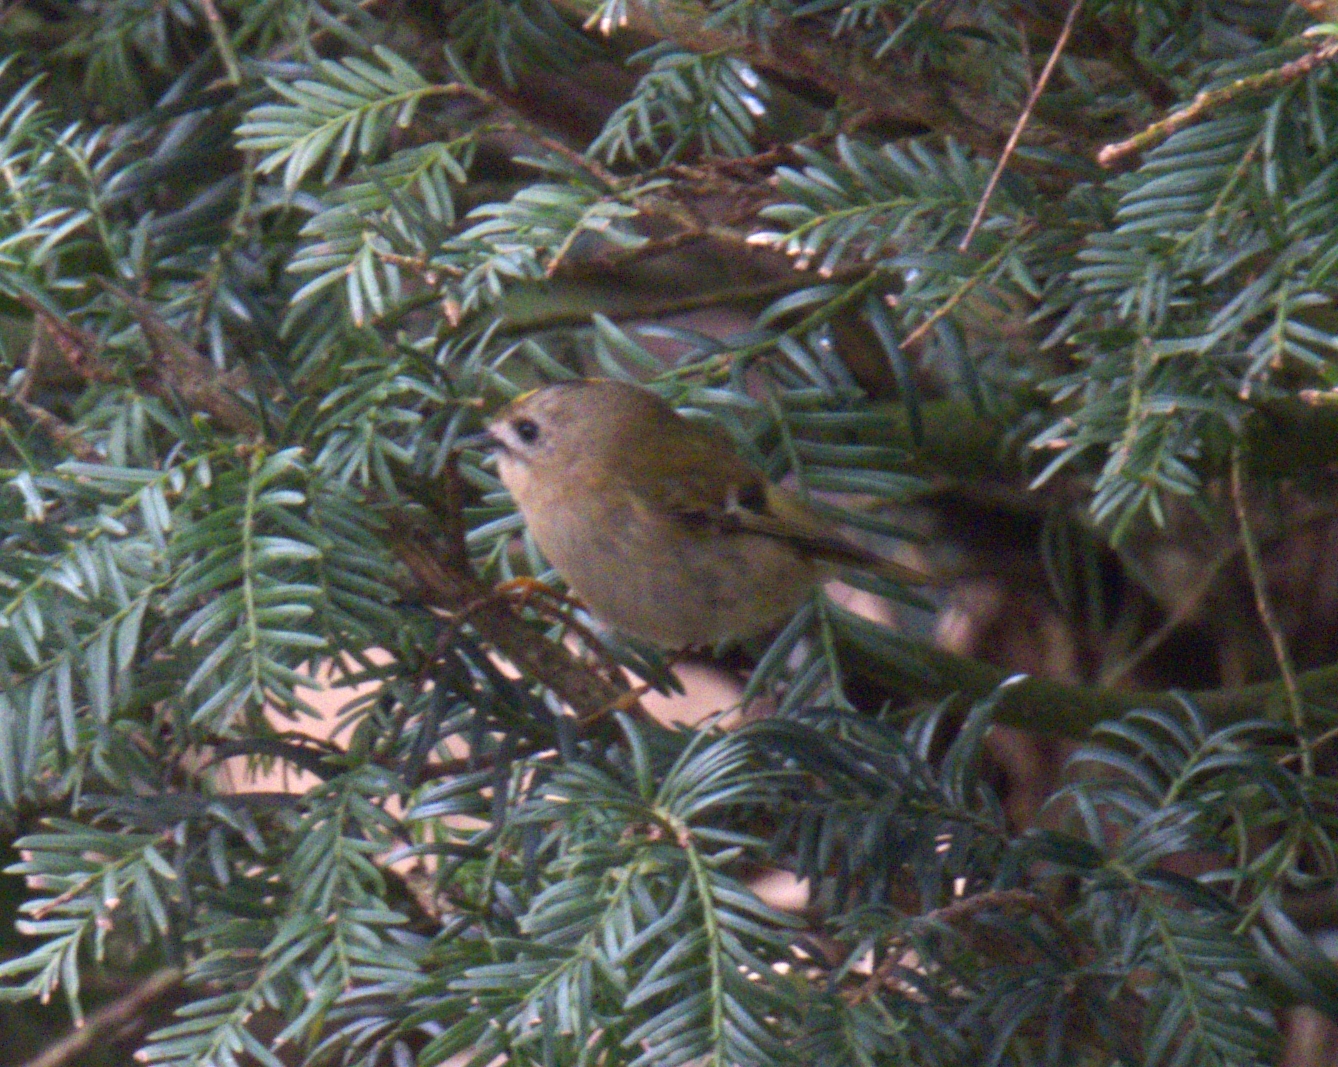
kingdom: Animalia
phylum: Chordata
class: Aves
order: Passeriformes
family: Regulidae
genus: Regulus
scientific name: Regulus regulus
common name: Goldcrest
